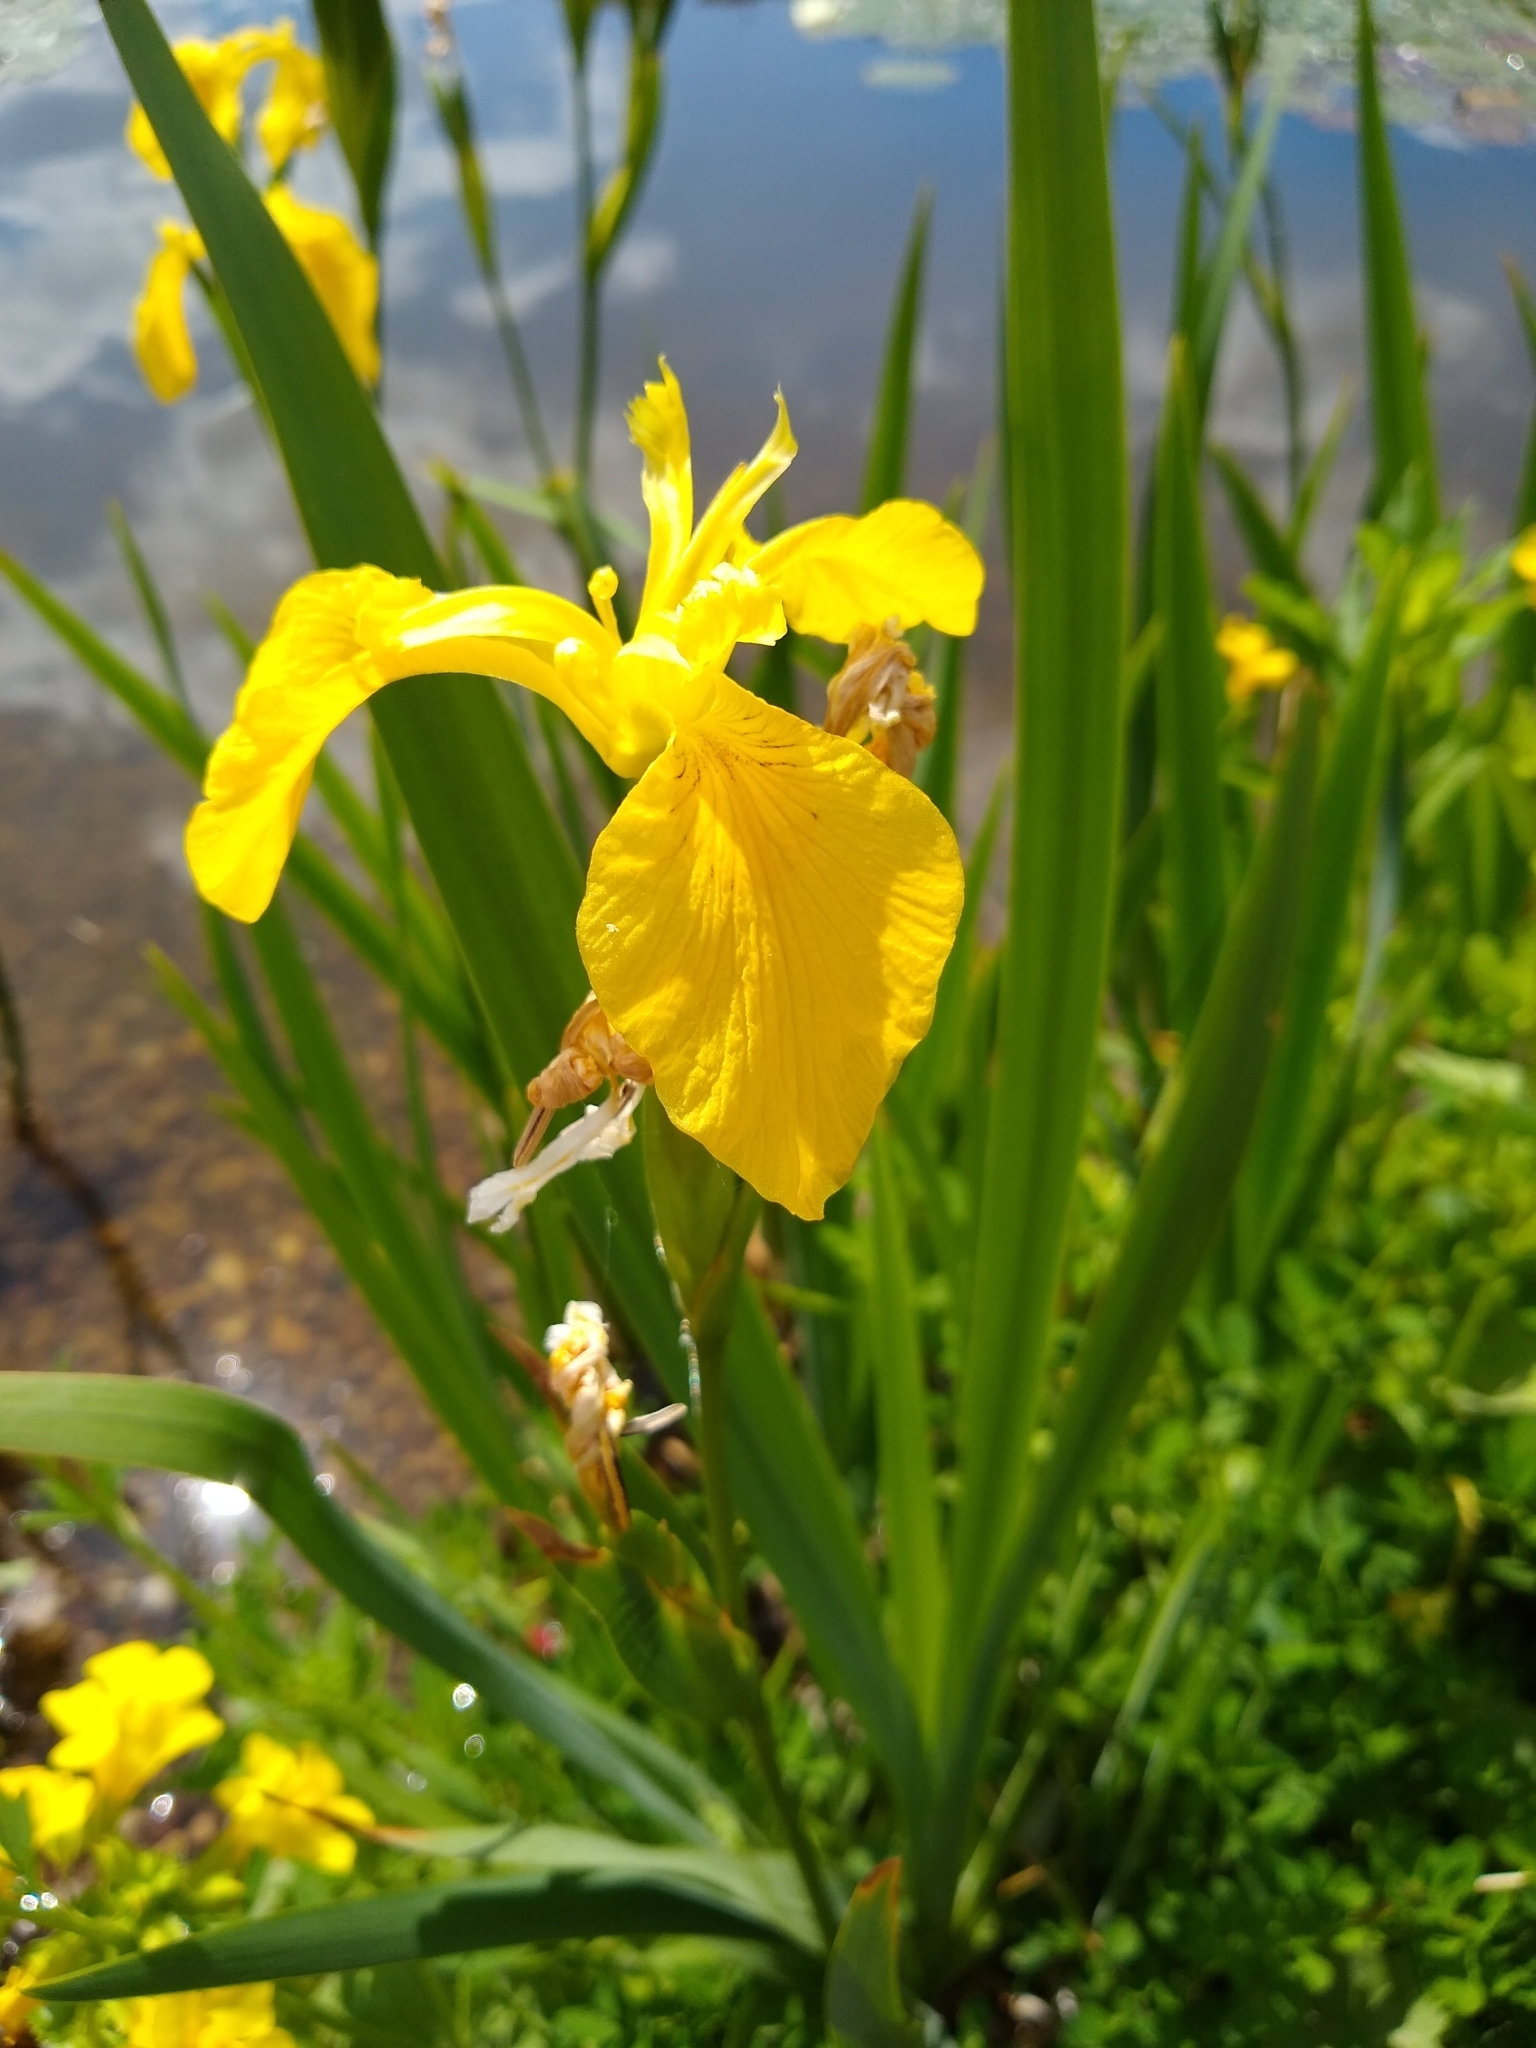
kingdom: Plantae
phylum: Tracheophyta
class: Liliopsida
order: Asparagales
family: Iridaceae
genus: Iris
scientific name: Iris pseudacorus
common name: Yellow flag
